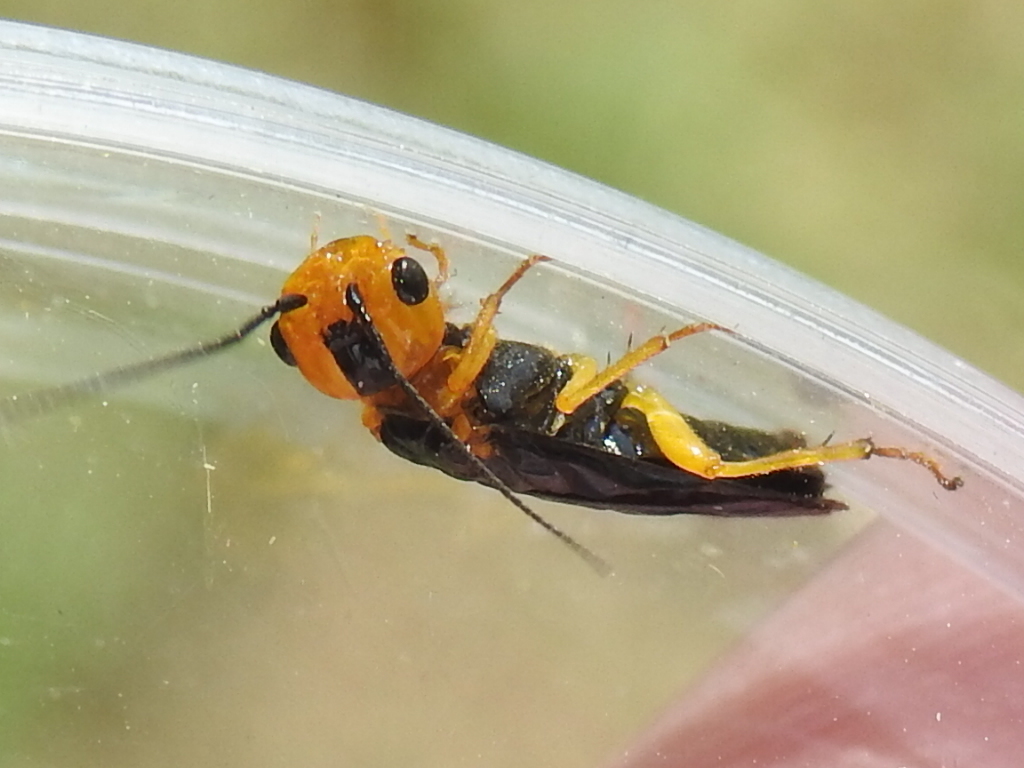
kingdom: Animalia
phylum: Arthropoda
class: Insecta
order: Hymenoptera
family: Pamphiliidae
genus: Onycholyda
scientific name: Onycholyda amplecta
